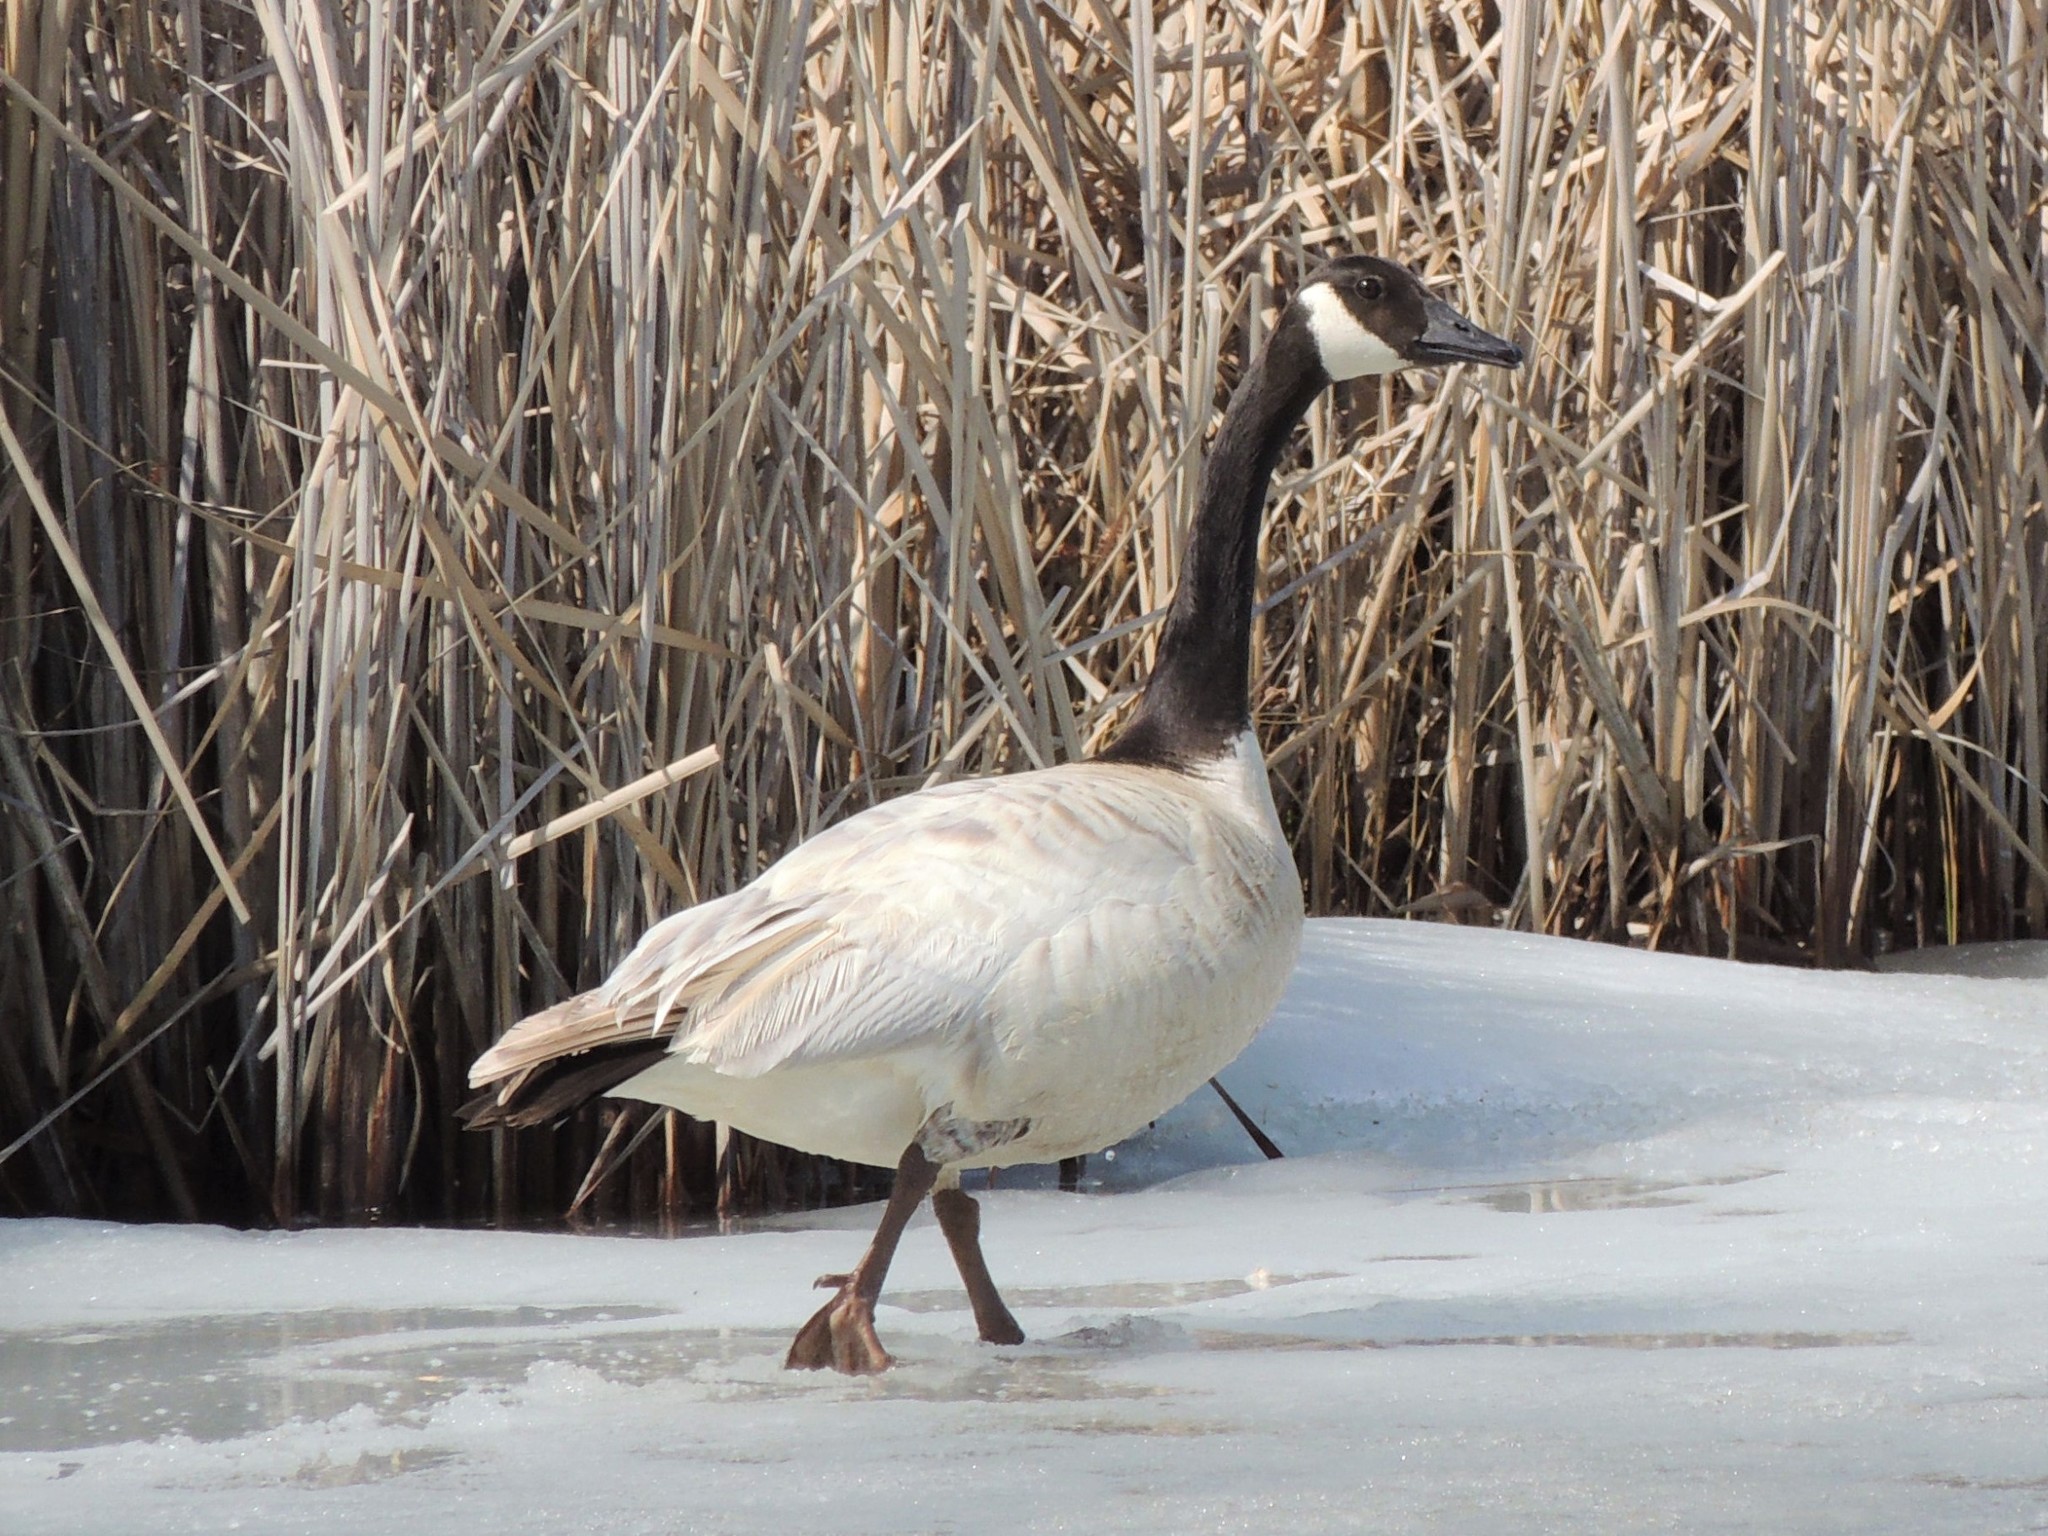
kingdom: Animalia
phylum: Chordata
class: Aves
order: Anseriformes
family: Anatidae
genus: Branta
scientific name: Branta canadensis
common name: Canada goose
